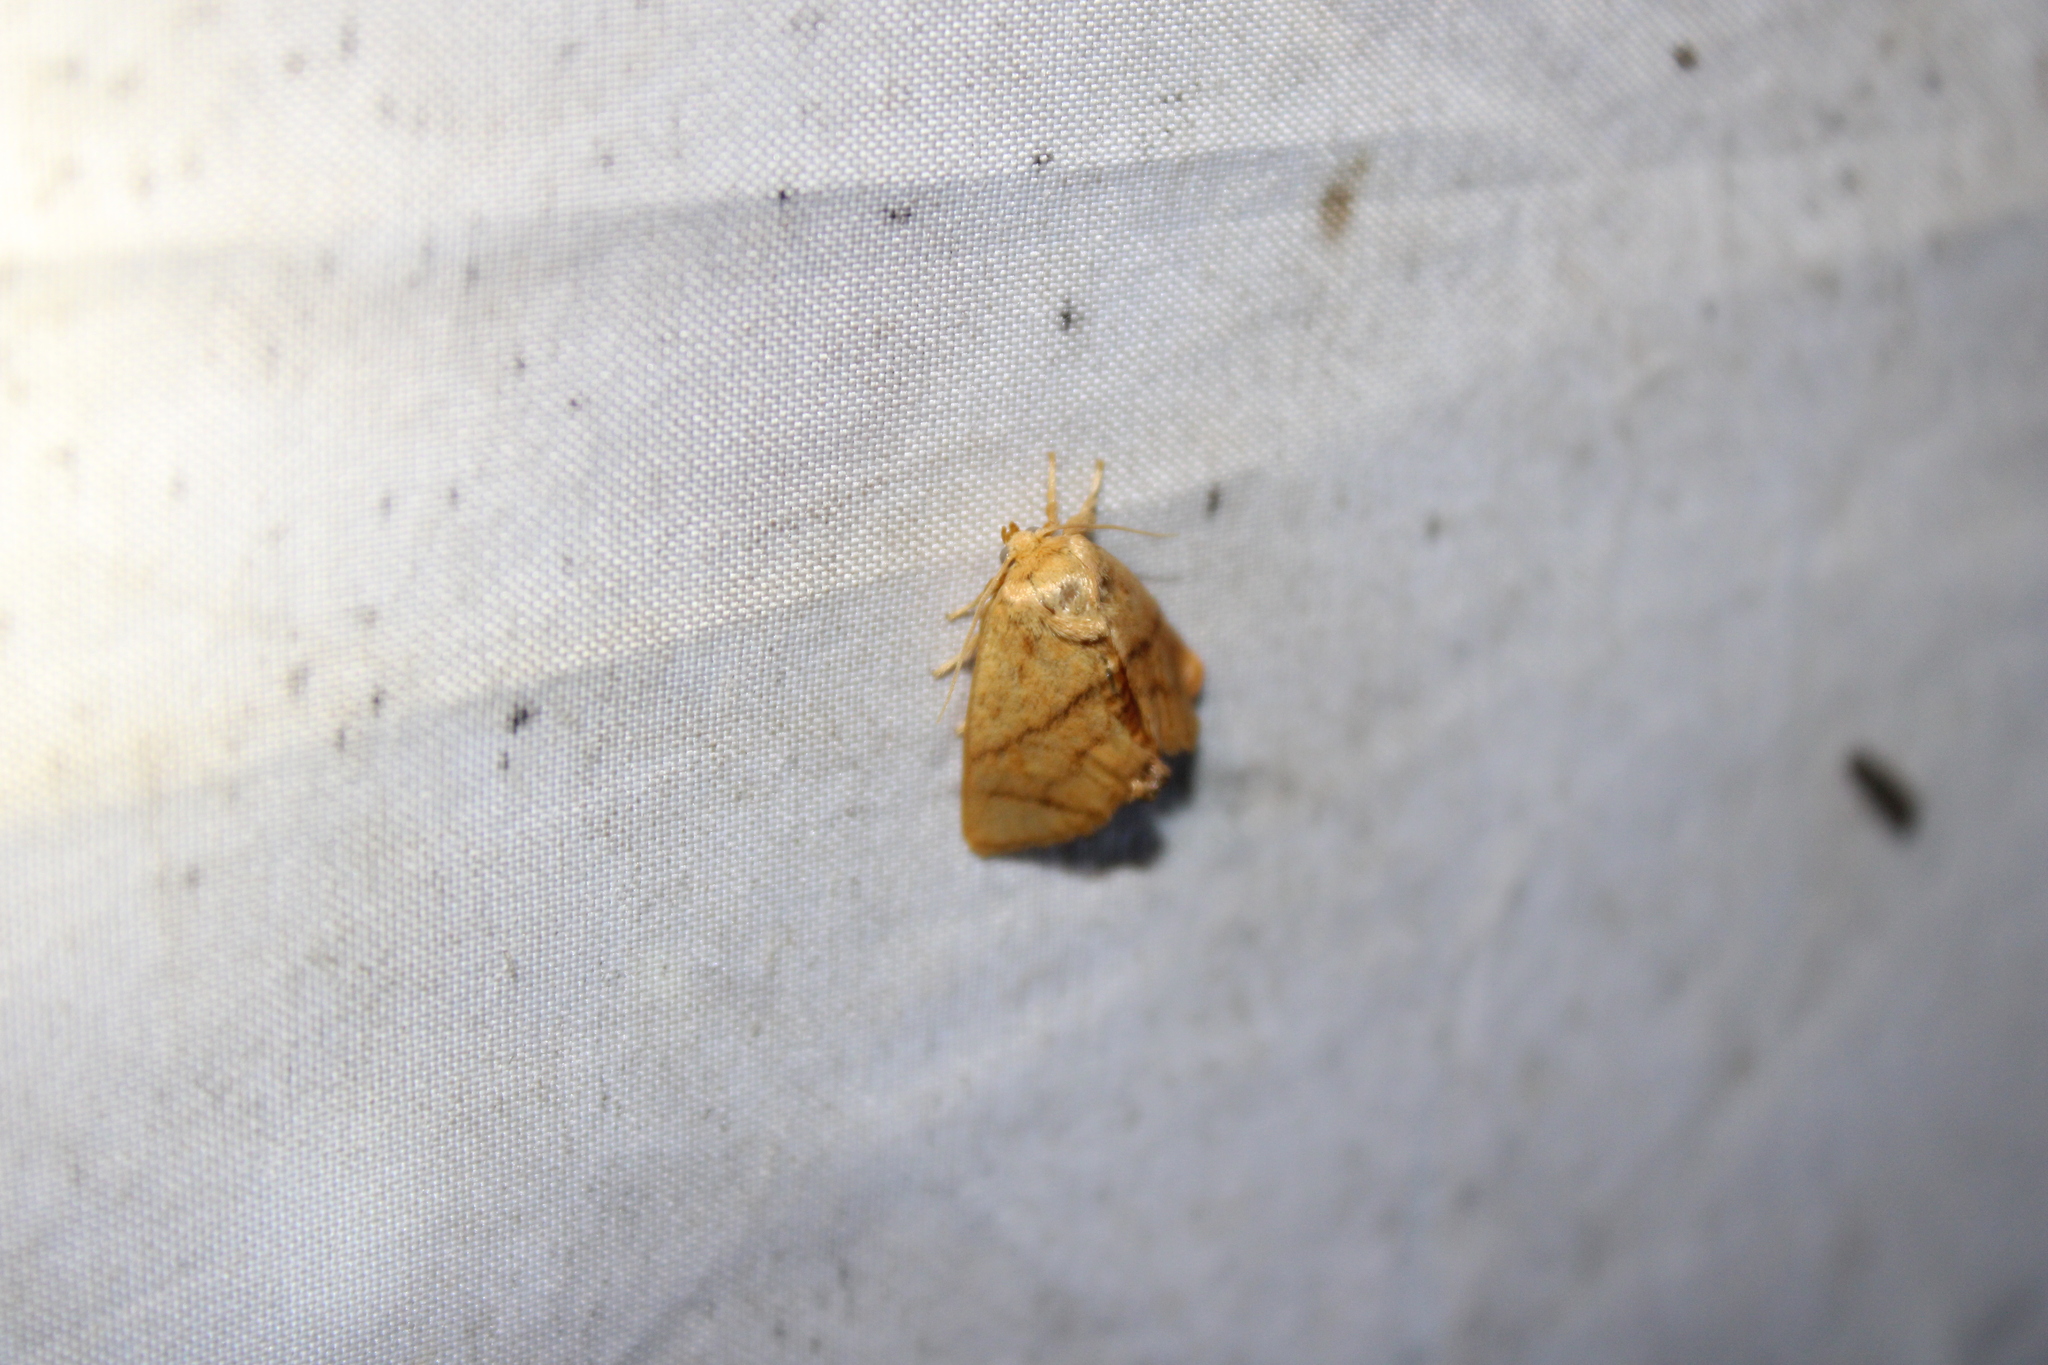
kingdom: Animalia
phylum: Arthropoda
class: Insecta
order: Lepidoptera
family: Limacodidae
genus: Apoda
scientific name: Apoda y-inversa
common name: Yellow-collared slug moth
